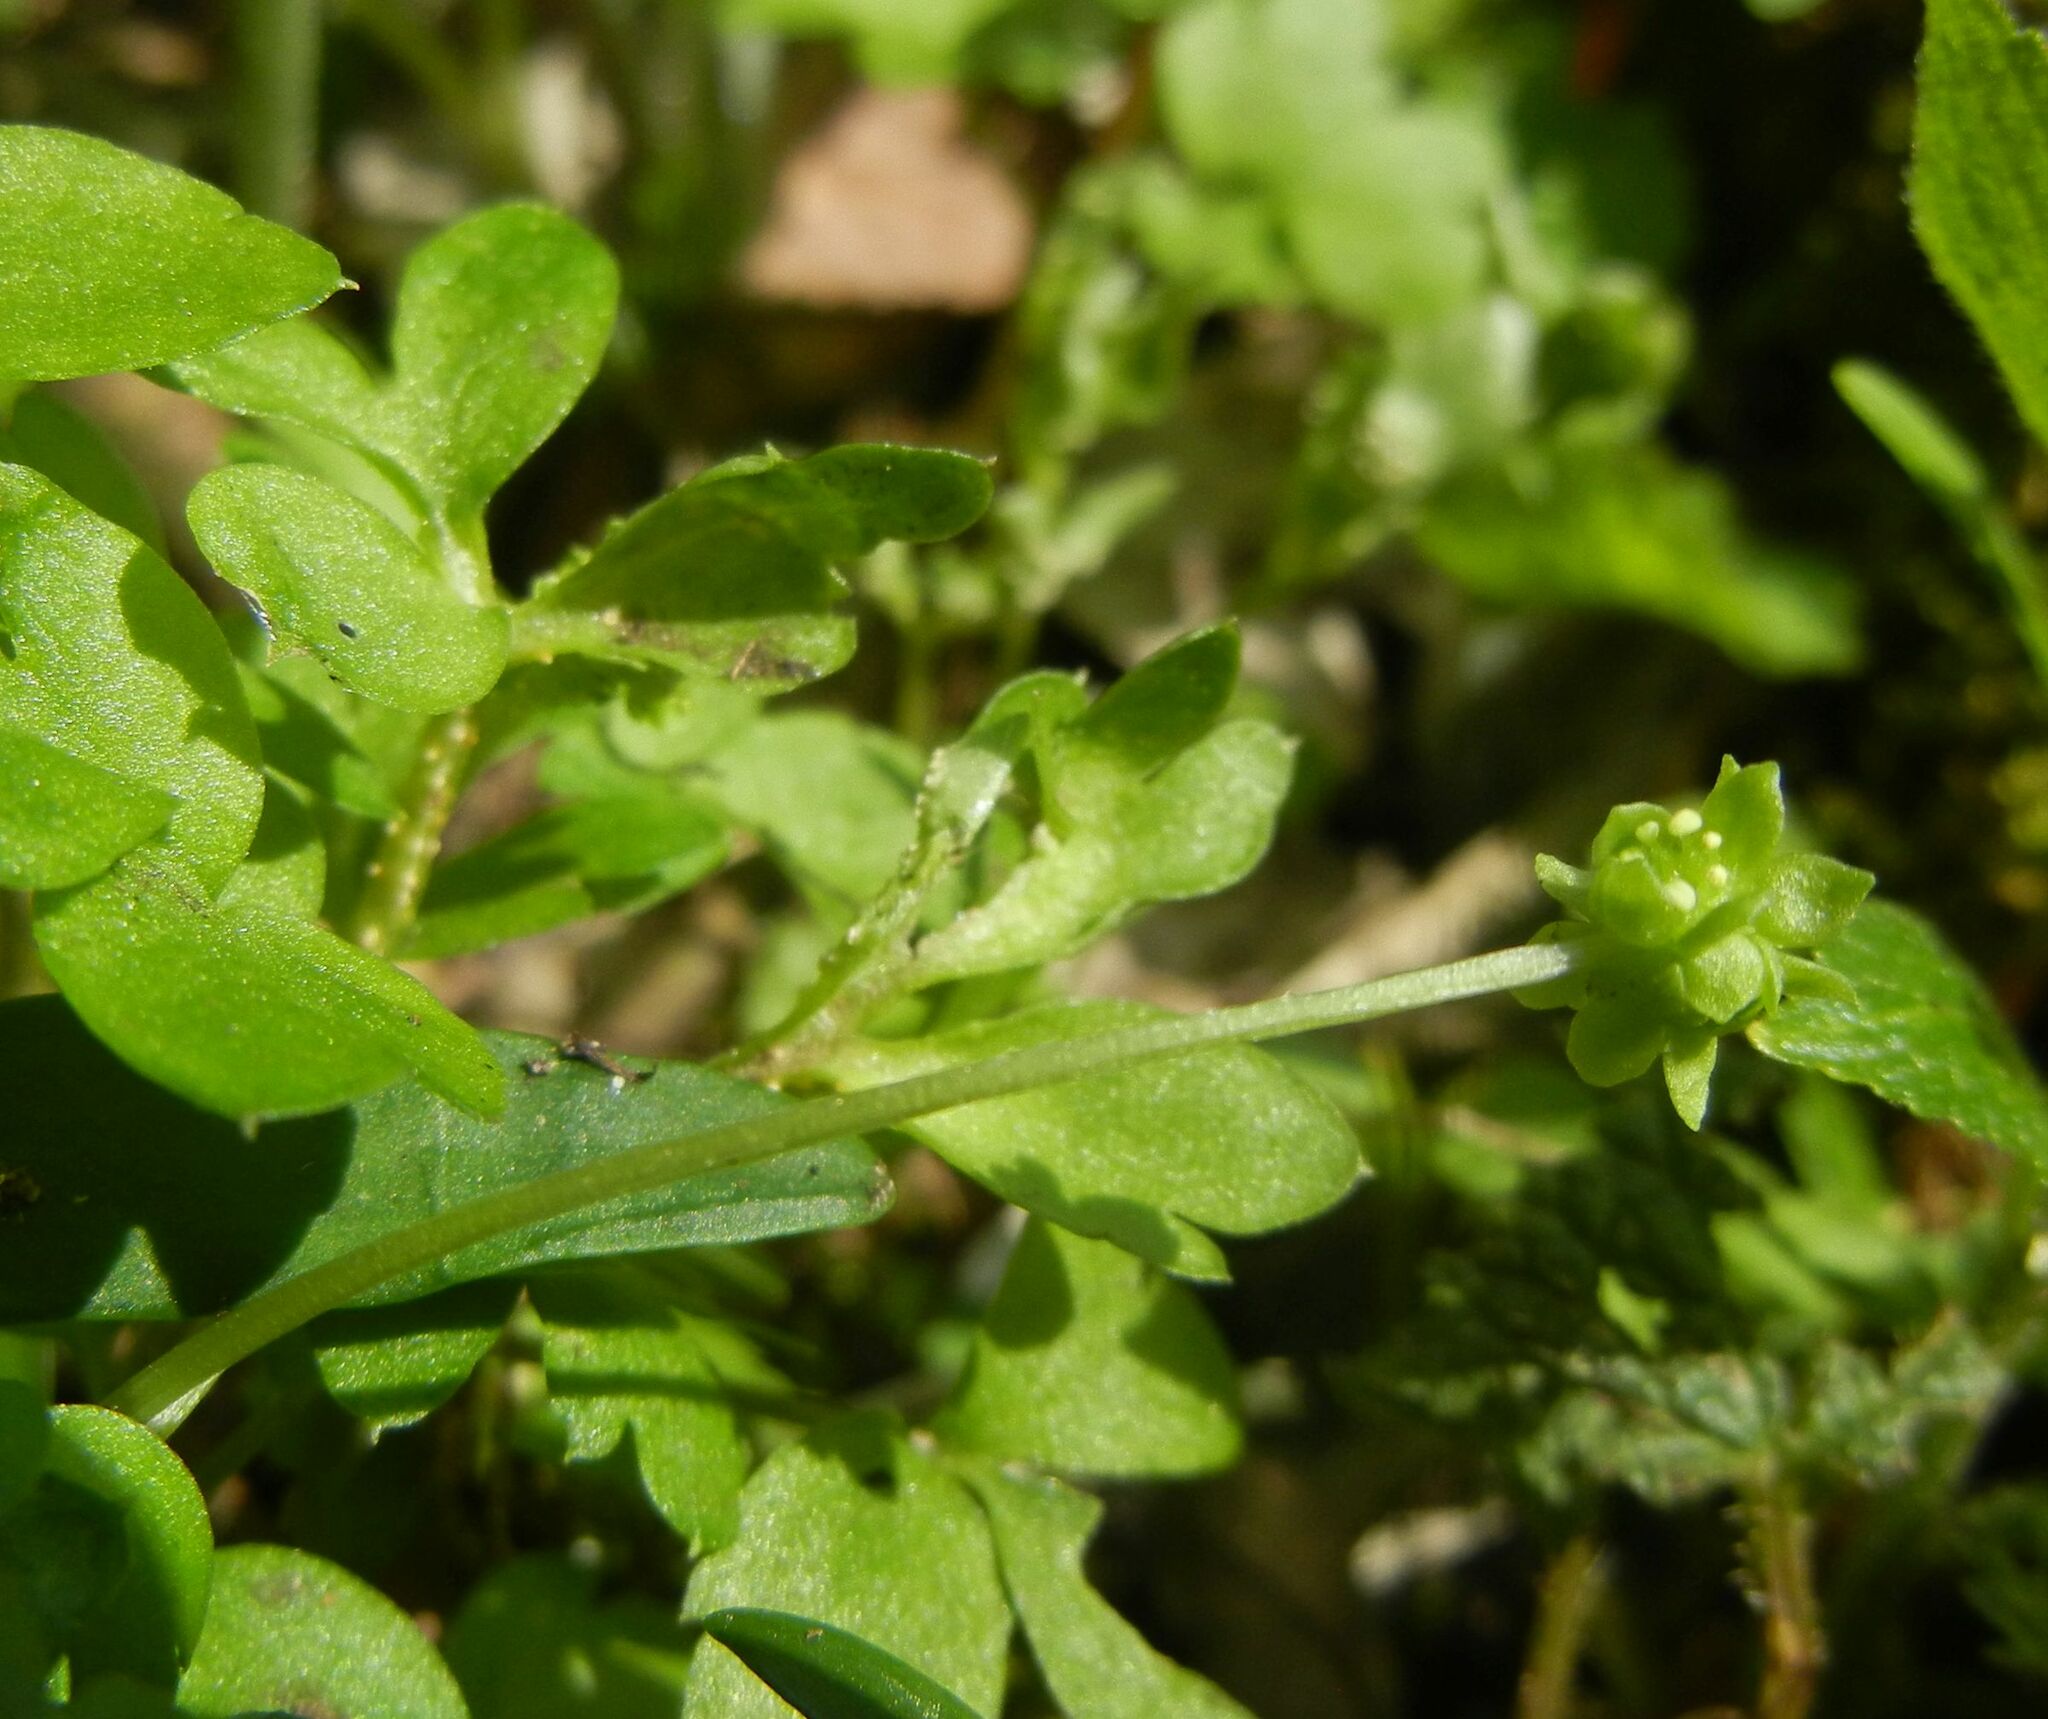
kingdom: Plantae
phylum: Tracheophyta
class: Magnoliopsida
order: Dipsacales
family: Viburnaceae
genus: Adoxa
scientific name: Adoxa moschatellina
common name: Moschatel
